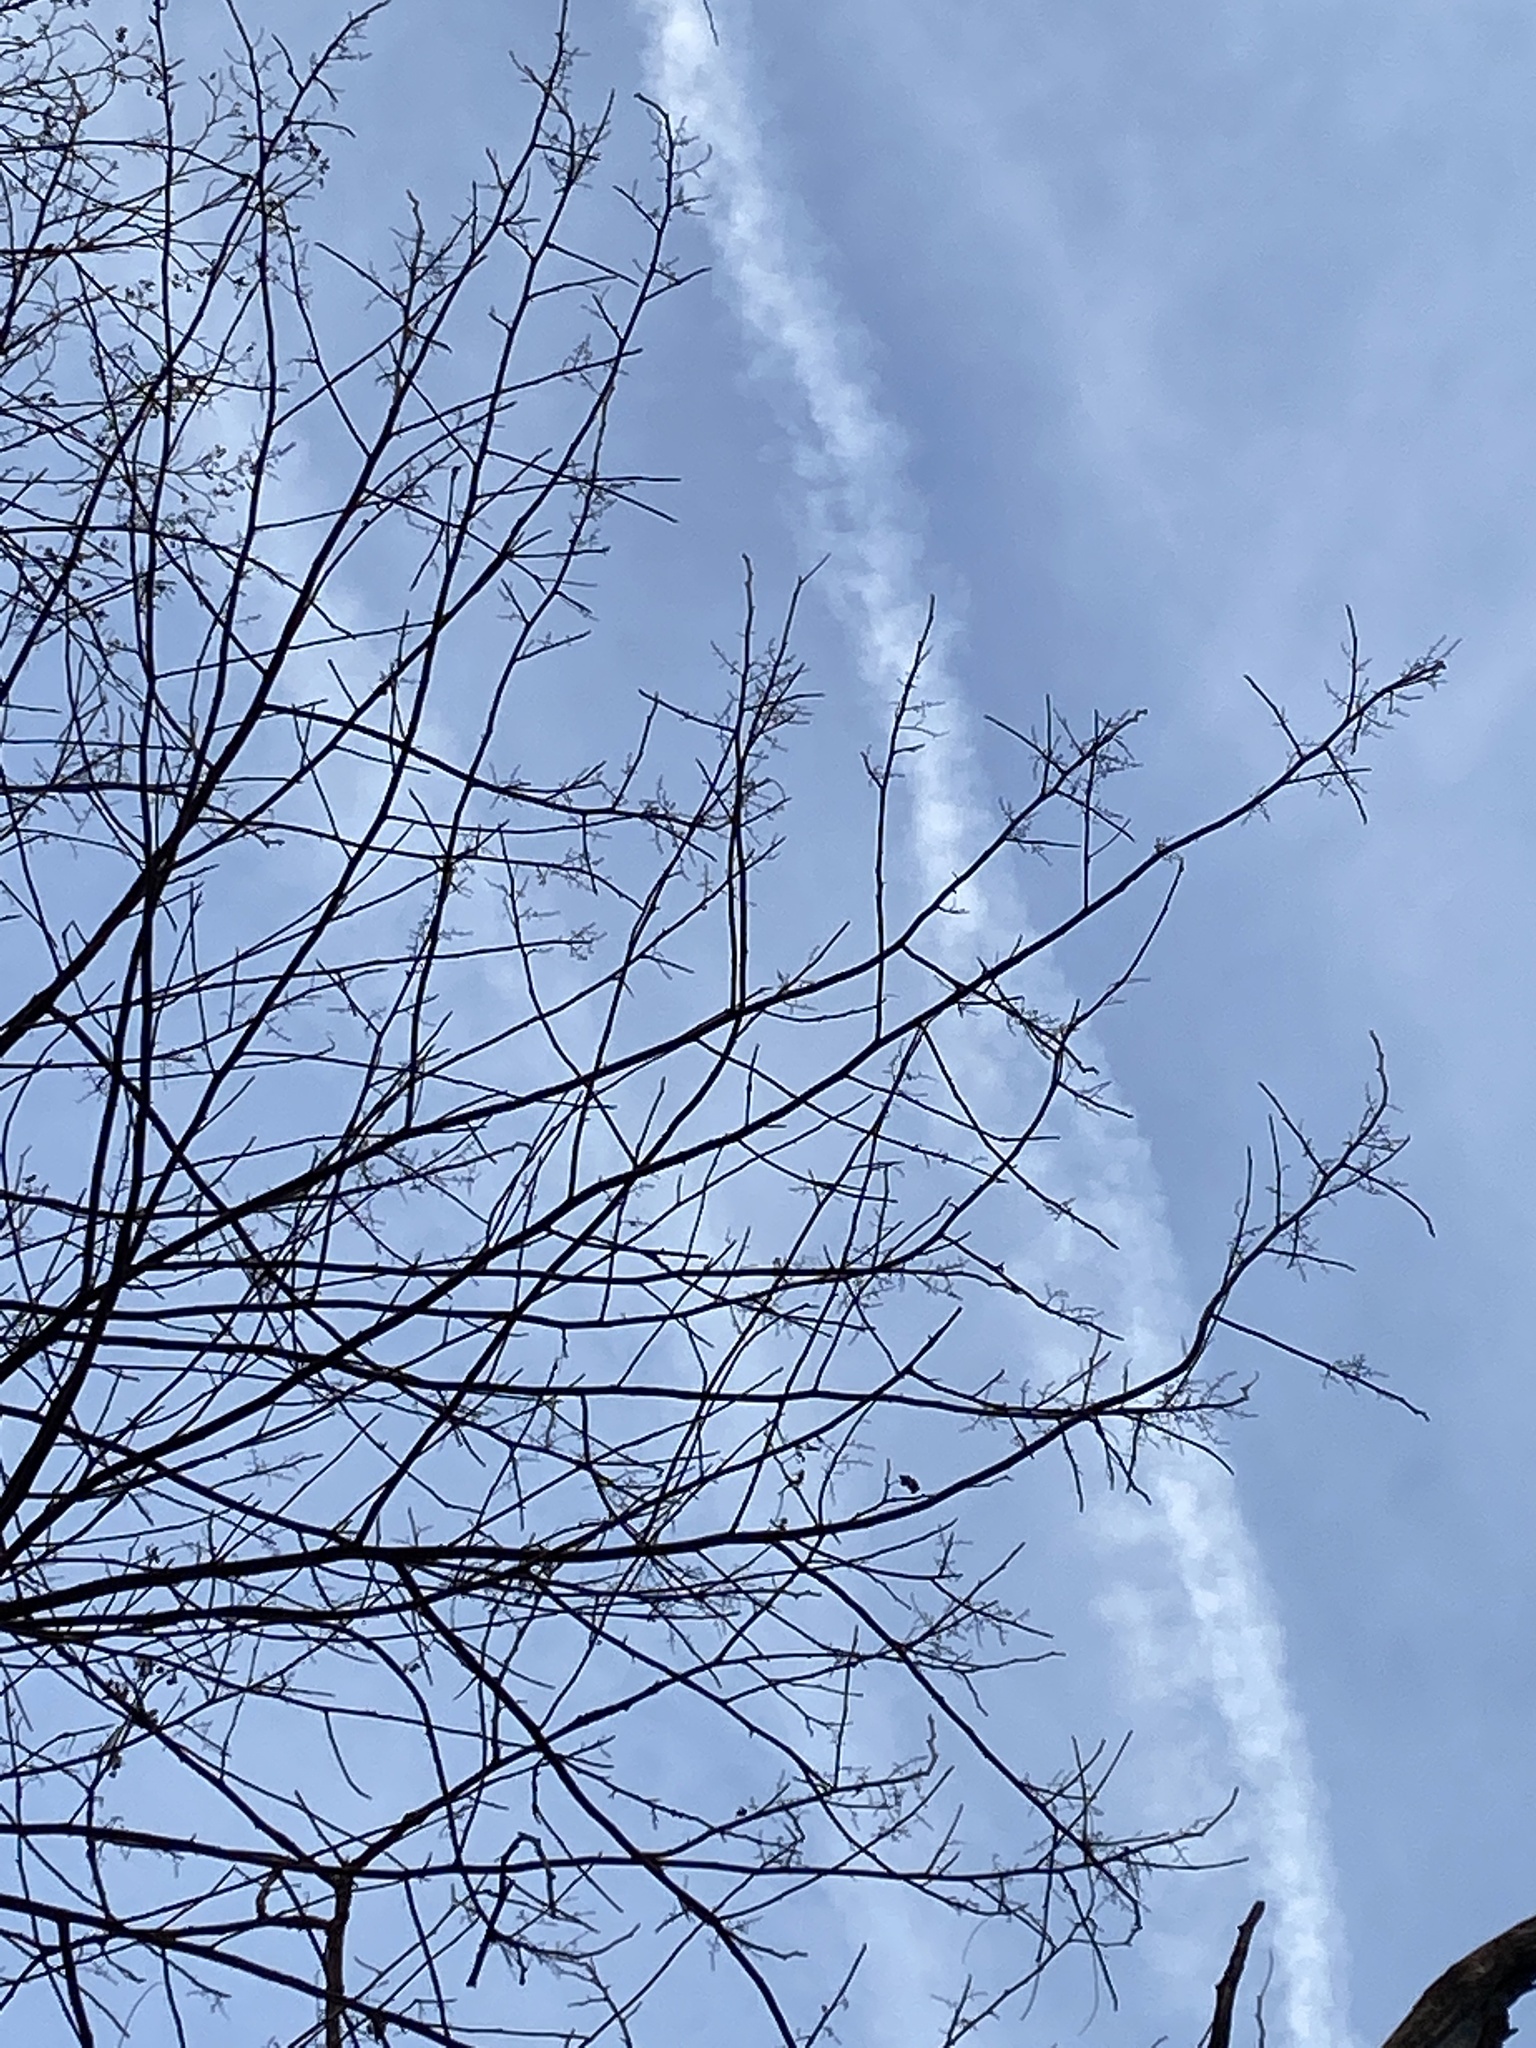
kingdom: Plantae
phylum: Tracheophyta
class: Magnoliopsida
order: Fabales
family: Fabaceae
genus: Robinia
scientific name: Robinia pseudoacacia
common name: Black locust
